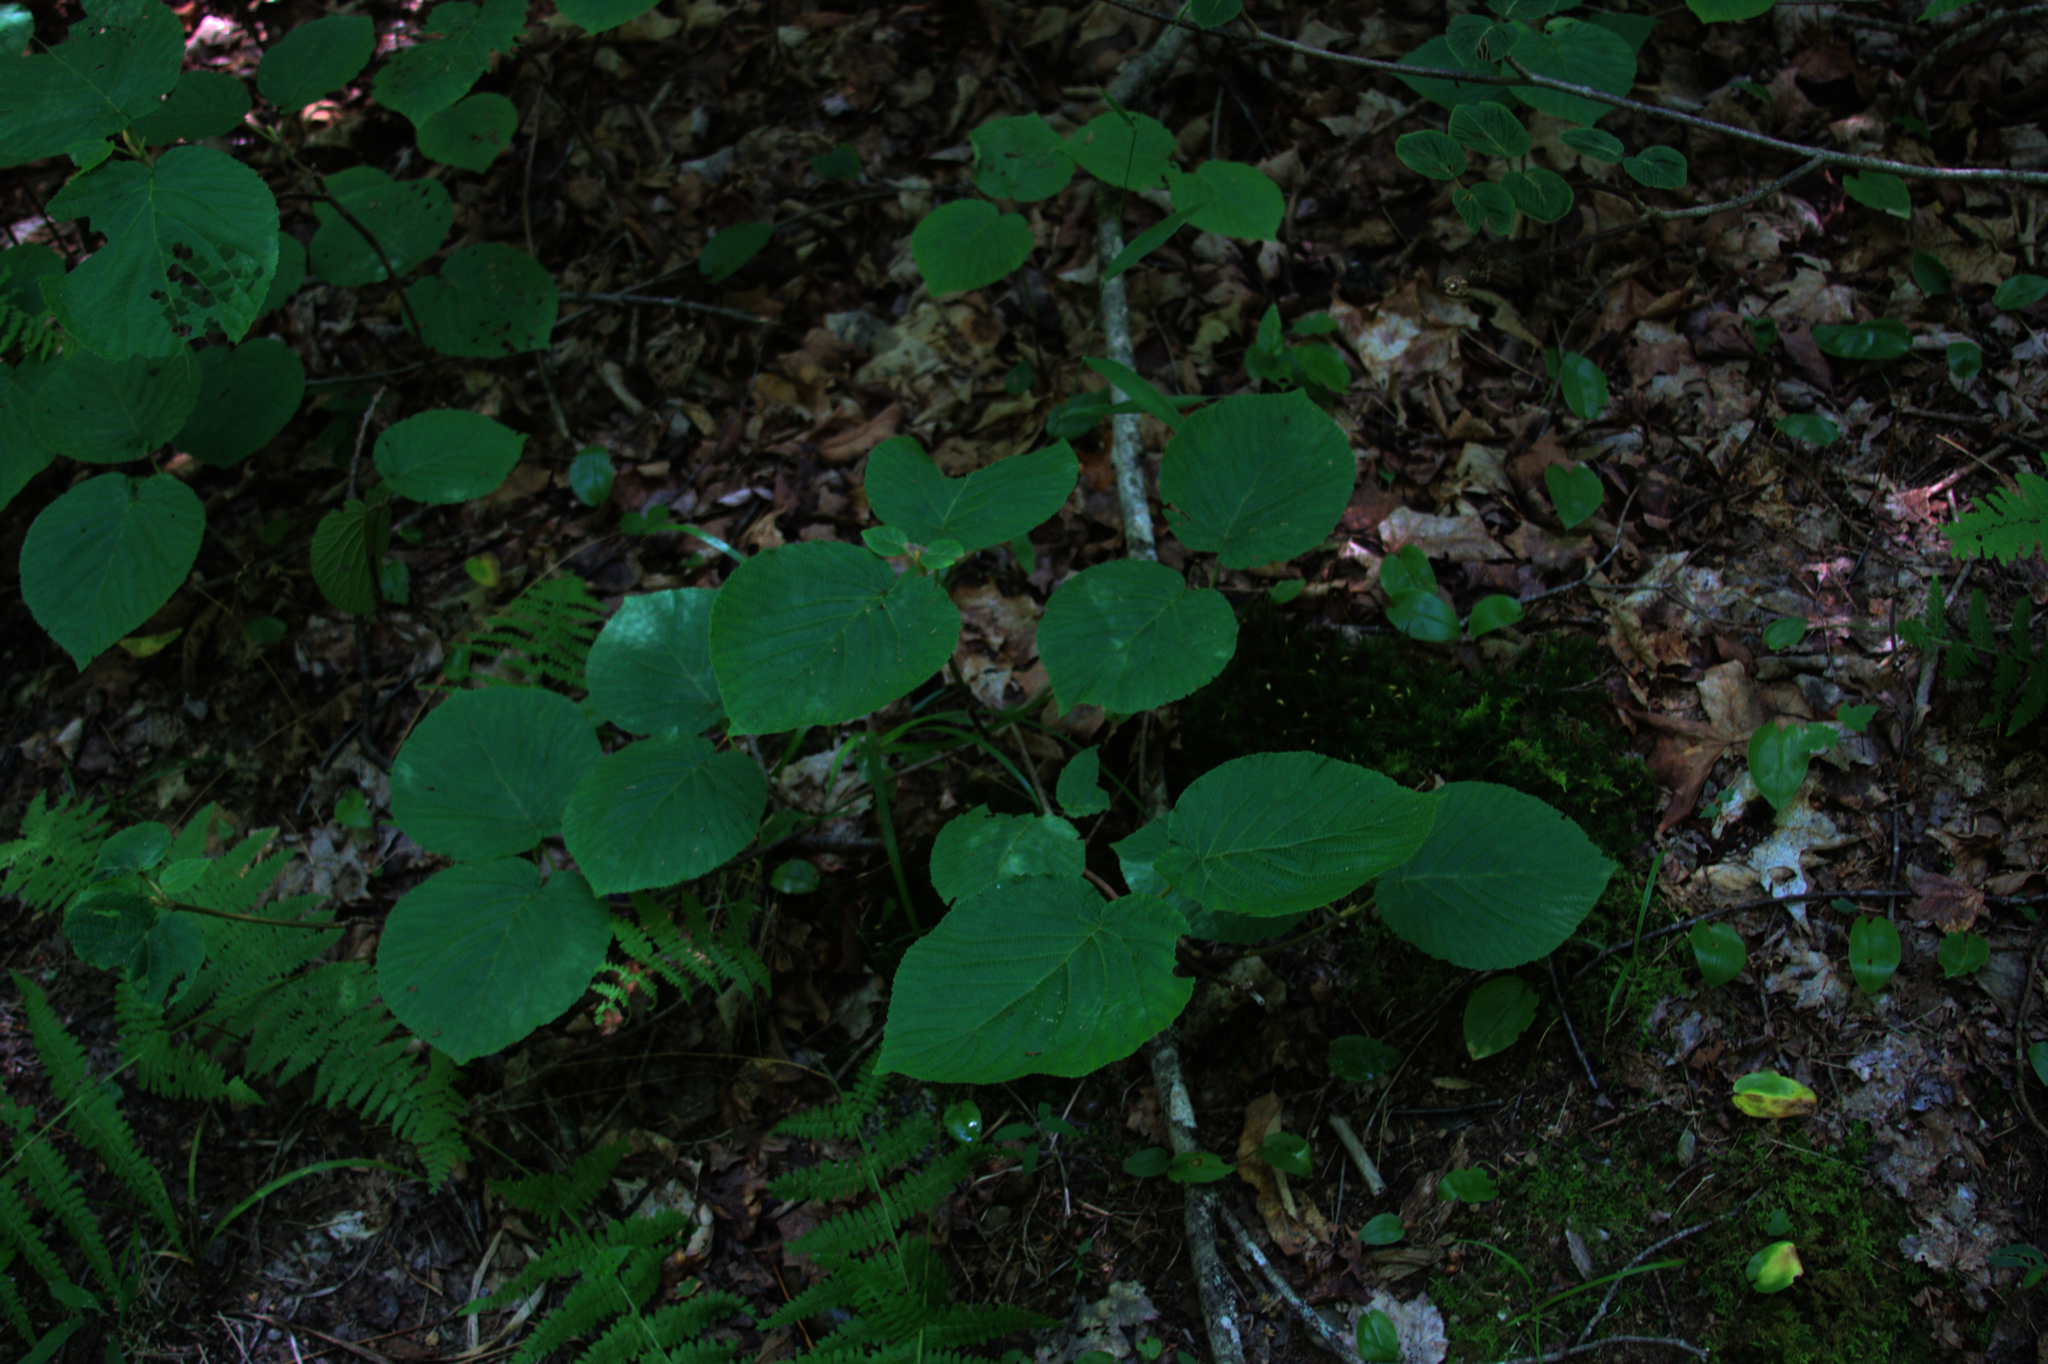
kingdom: Plantae
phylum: Tracheophyta
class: Magnoliopsida
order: Dipsacales
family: Viburnaceae
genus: Viburnum
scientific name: Viburnum lantanoides
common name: Hobblebush
